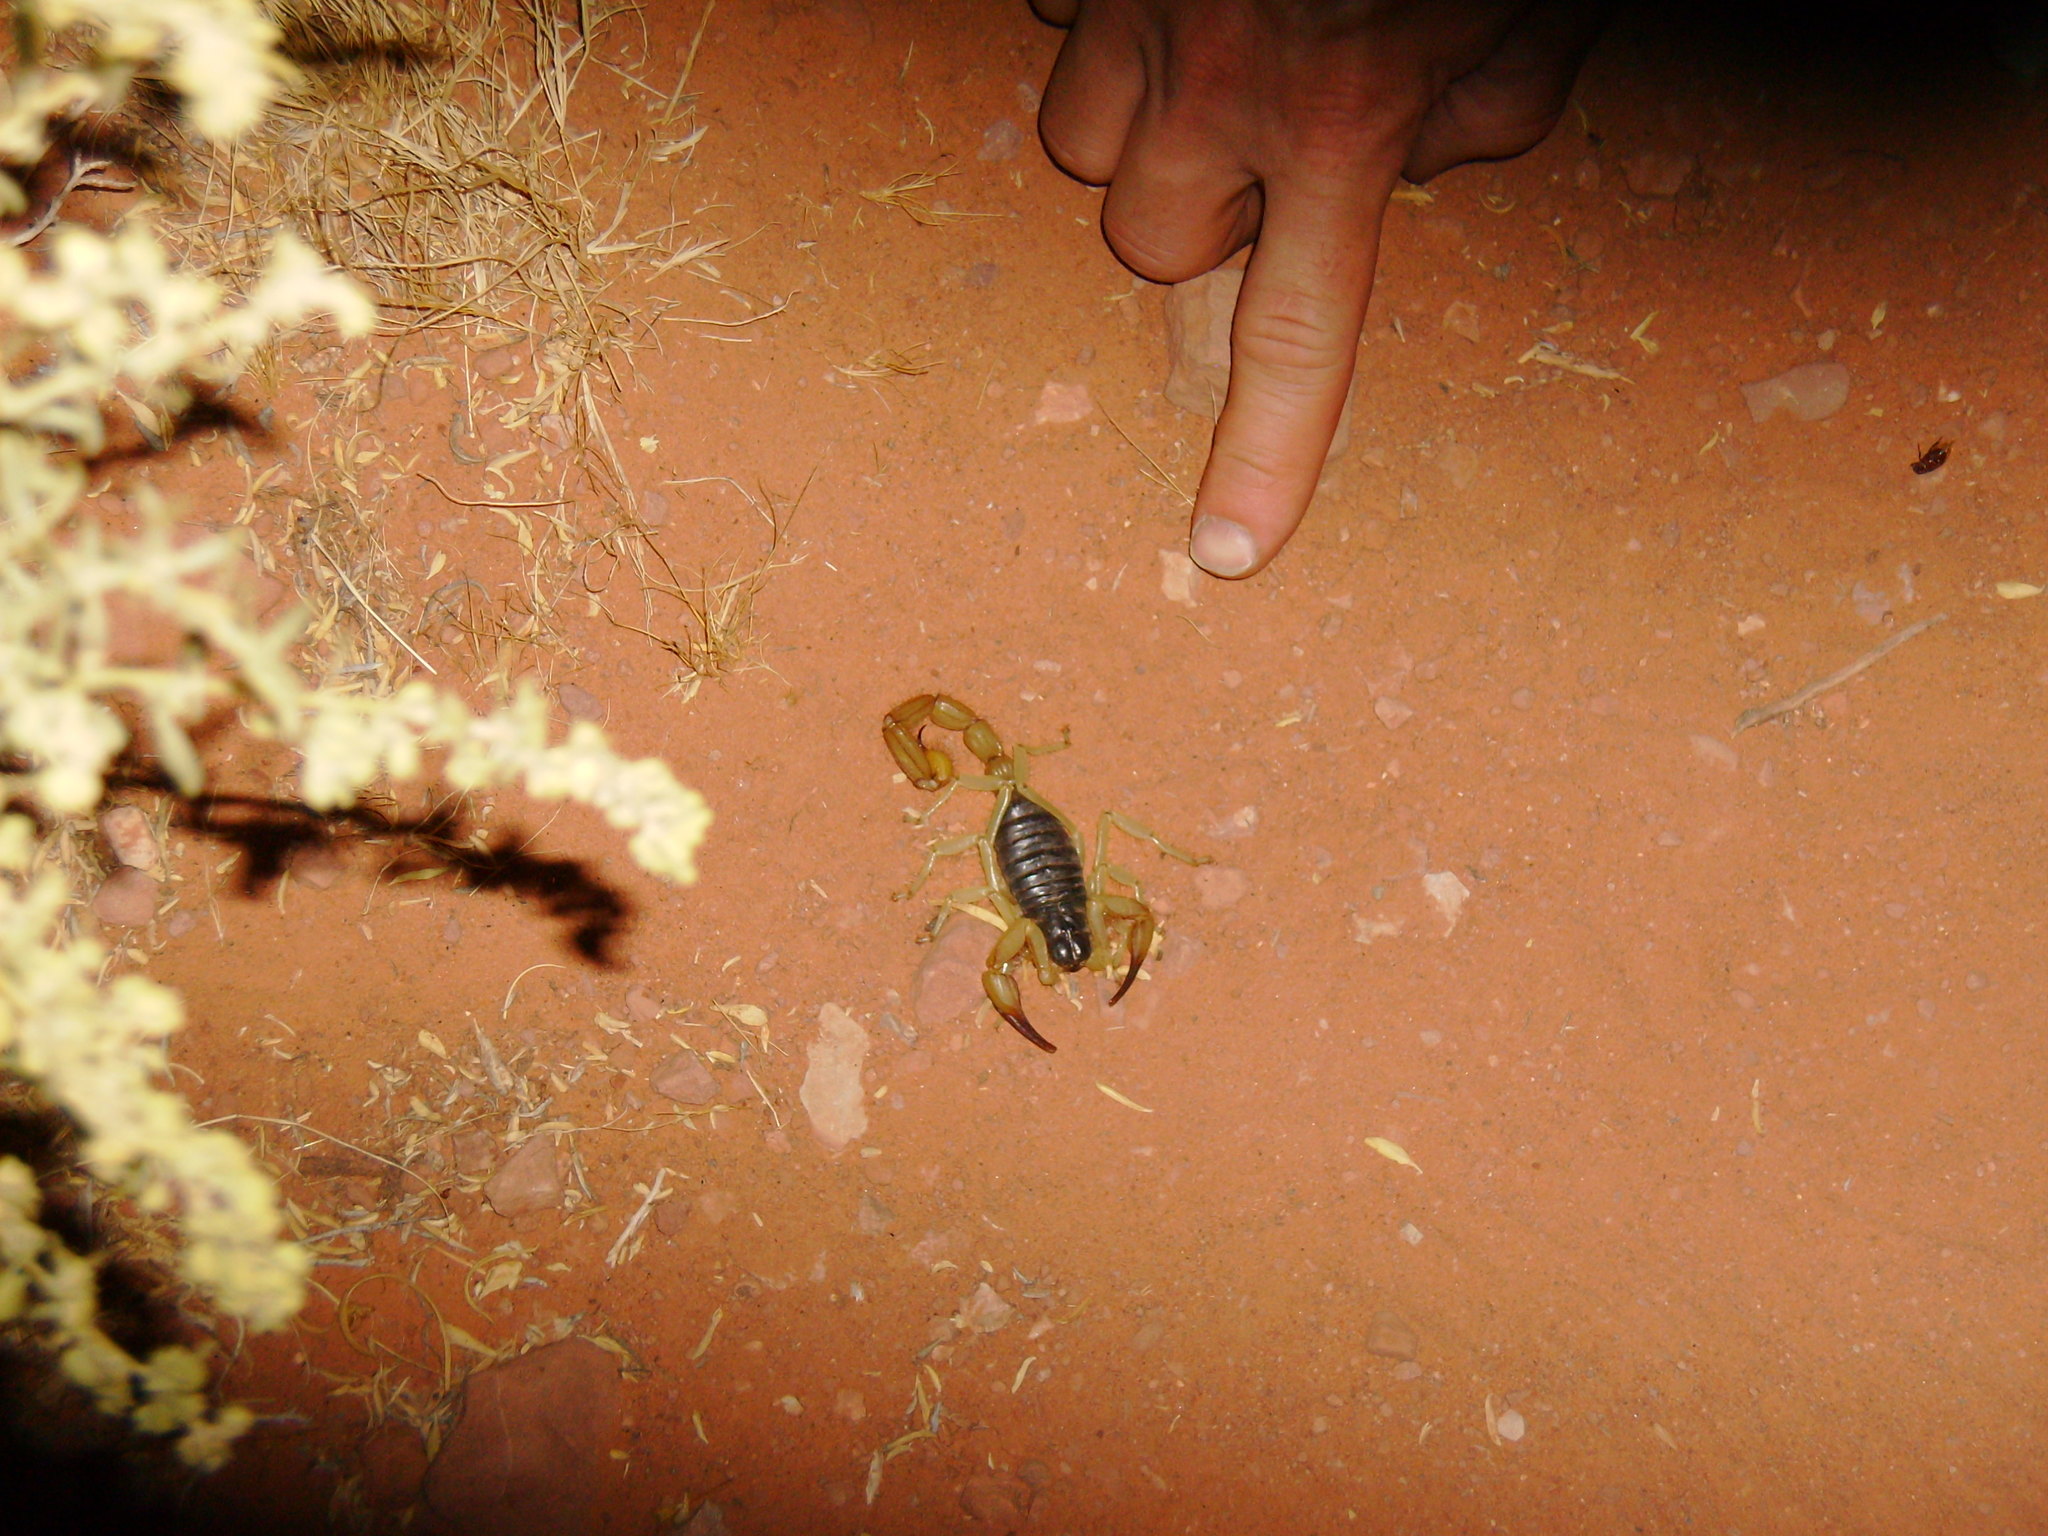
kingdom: Animalia
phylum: Arthropoda
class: Arachnida
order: Scorpiones
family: Hadruridae
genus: Hadrurus
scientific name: Hadrurus spadix
